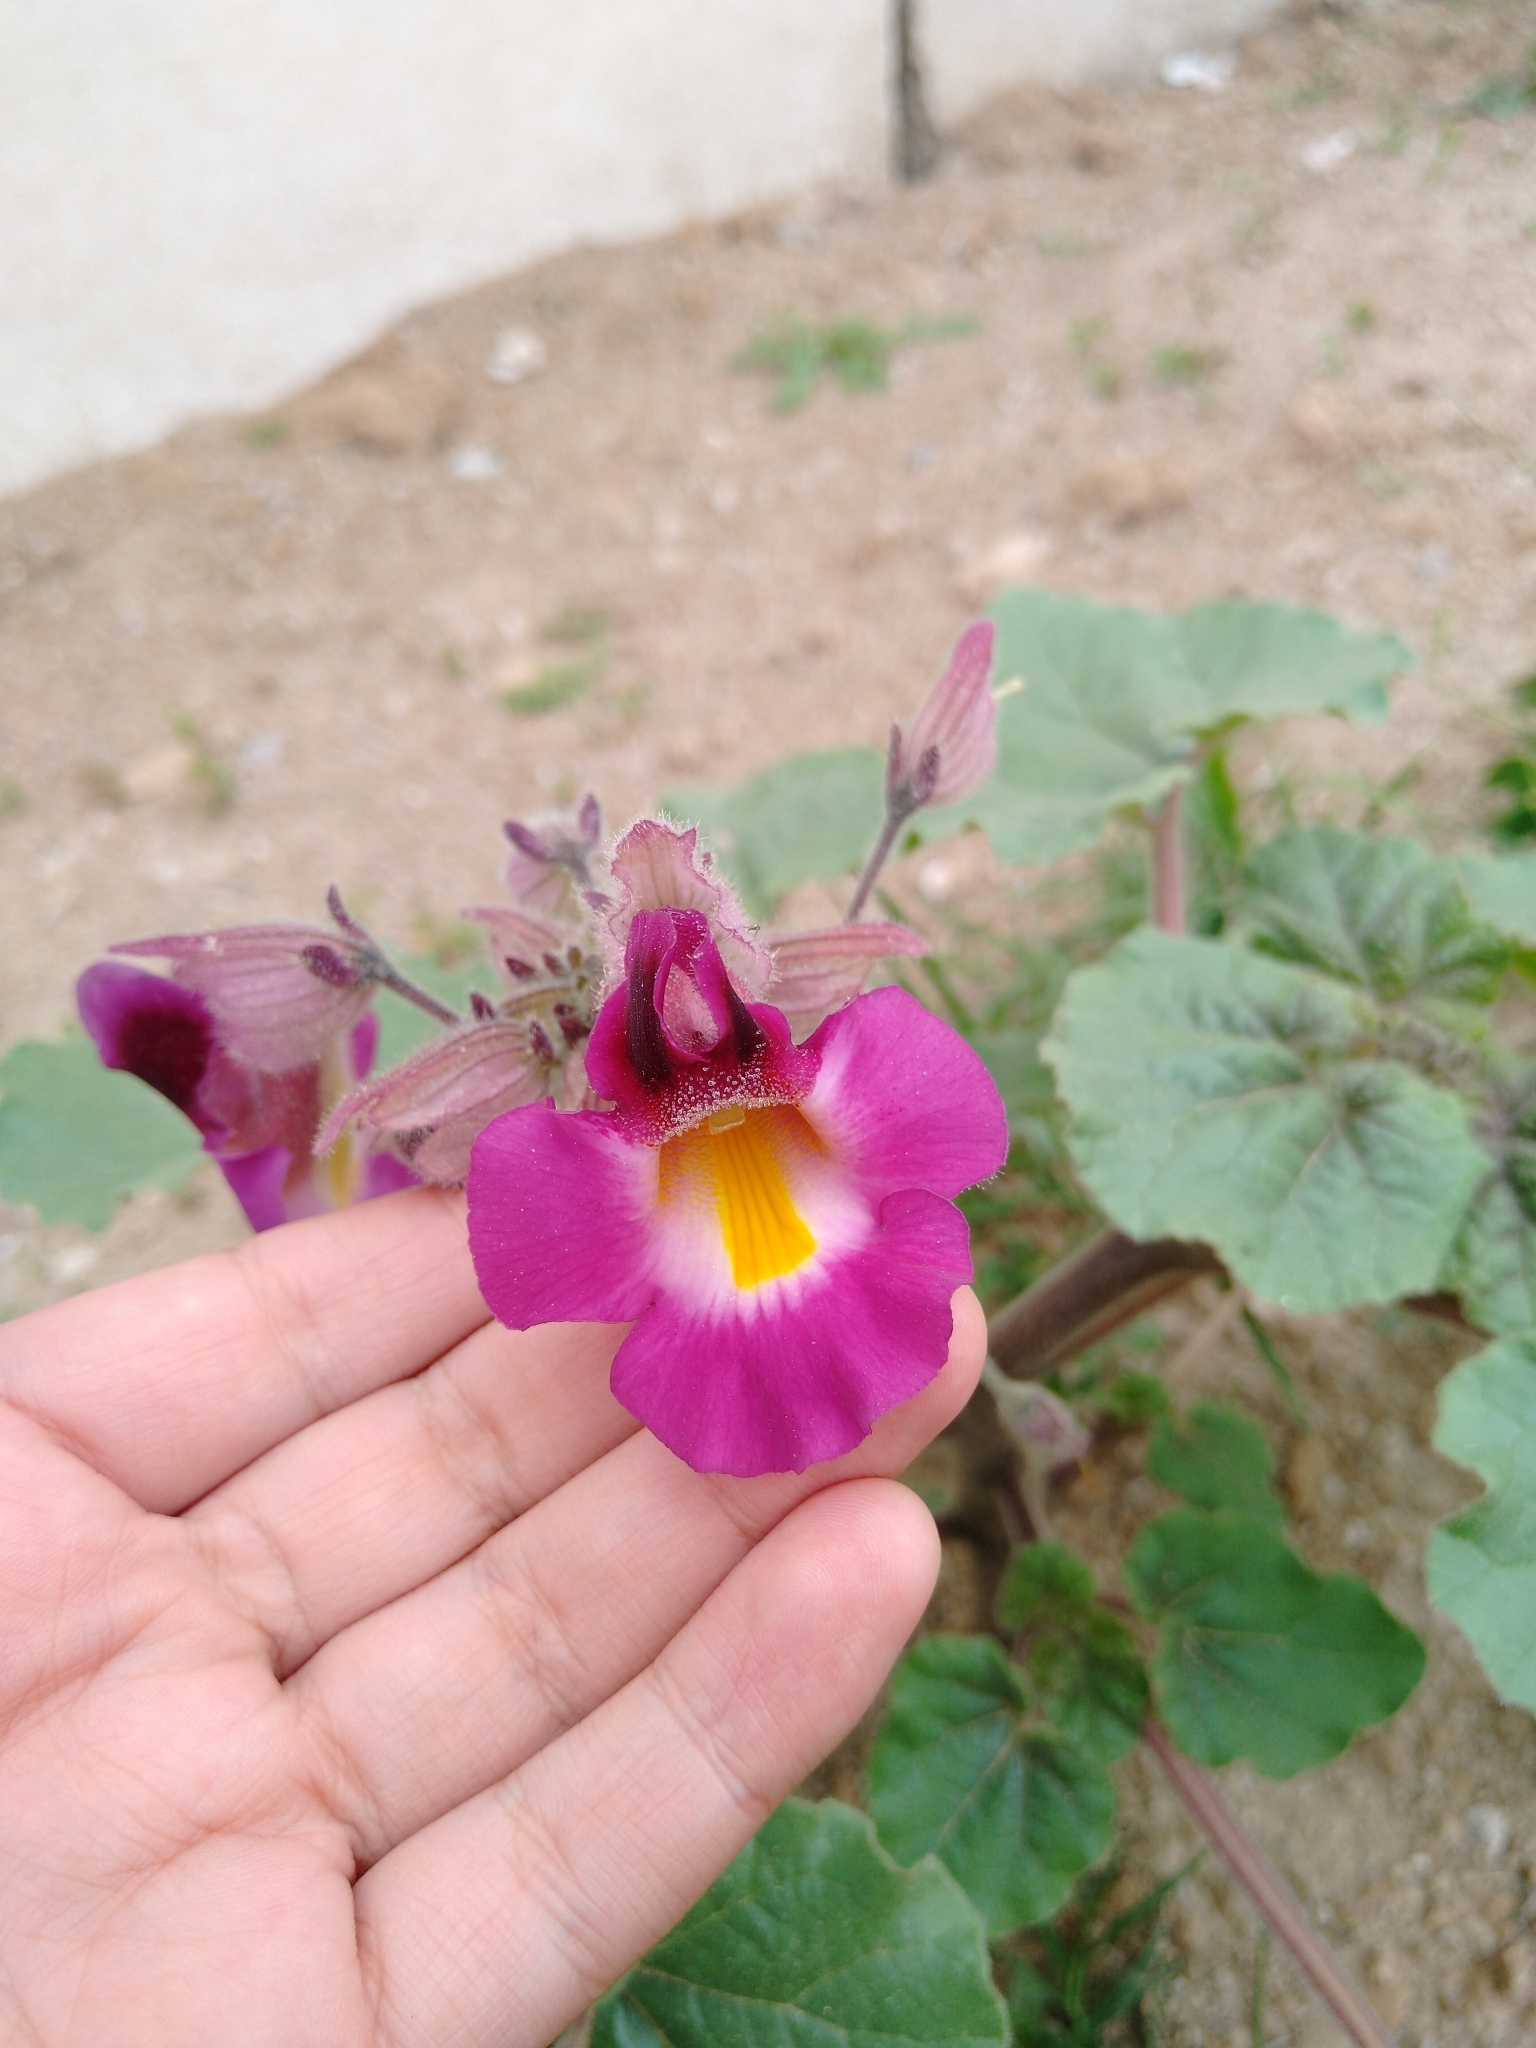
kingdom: Plantae
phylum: Tracheophyta
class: Magnoliopsida
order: Lamiales
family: Martyniaceae
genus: Proboscidea
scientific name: Proboscidea louisianica
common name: Elephant tusks
